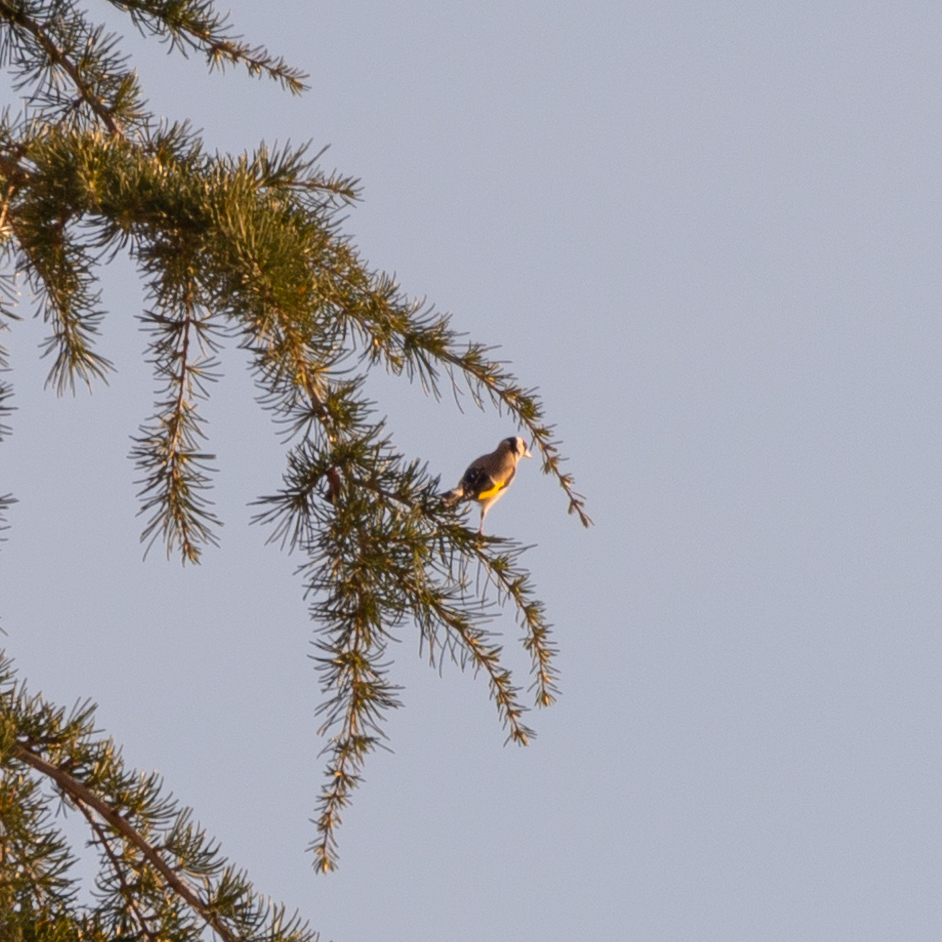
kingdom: Animalia
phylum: Chordata
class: Aves
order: Passeriformes
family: Fringillidae
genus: Carduelis
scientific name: Carduelis carduelis
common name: European goldfinch
